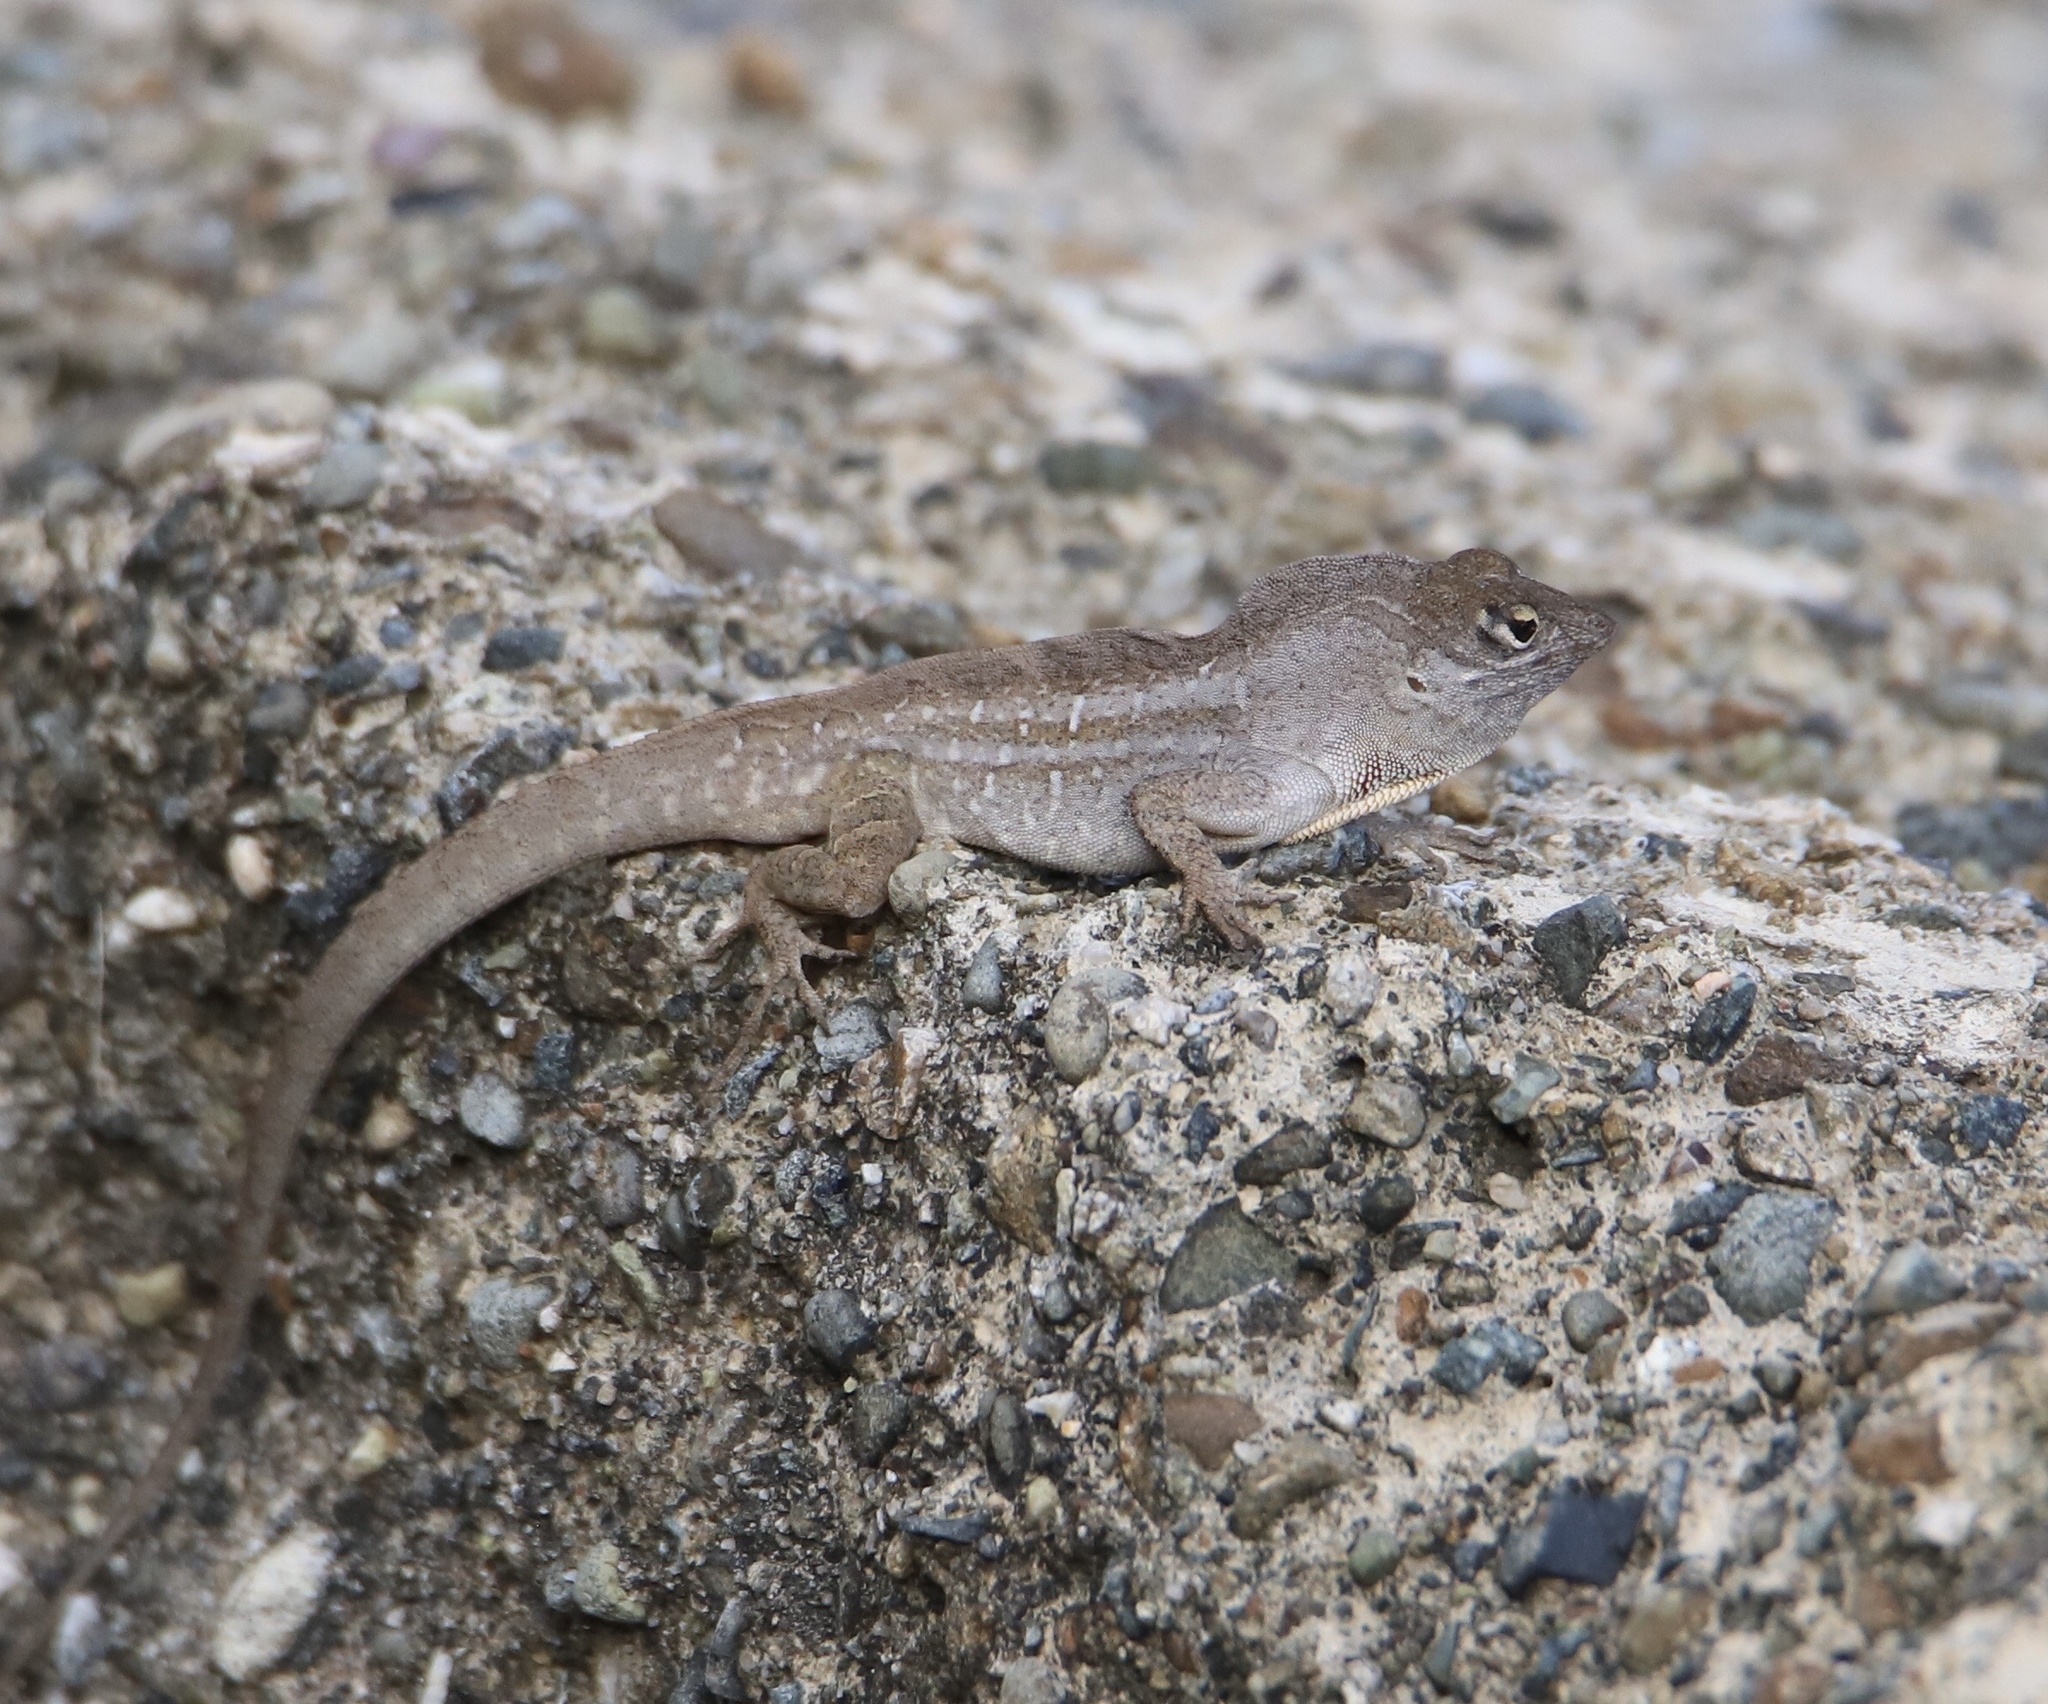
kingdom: Animalia
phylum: Chordata
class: Squamata
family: Dactyloidae
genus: Anolis
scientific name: Anolis sagrei
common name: Brown anole
